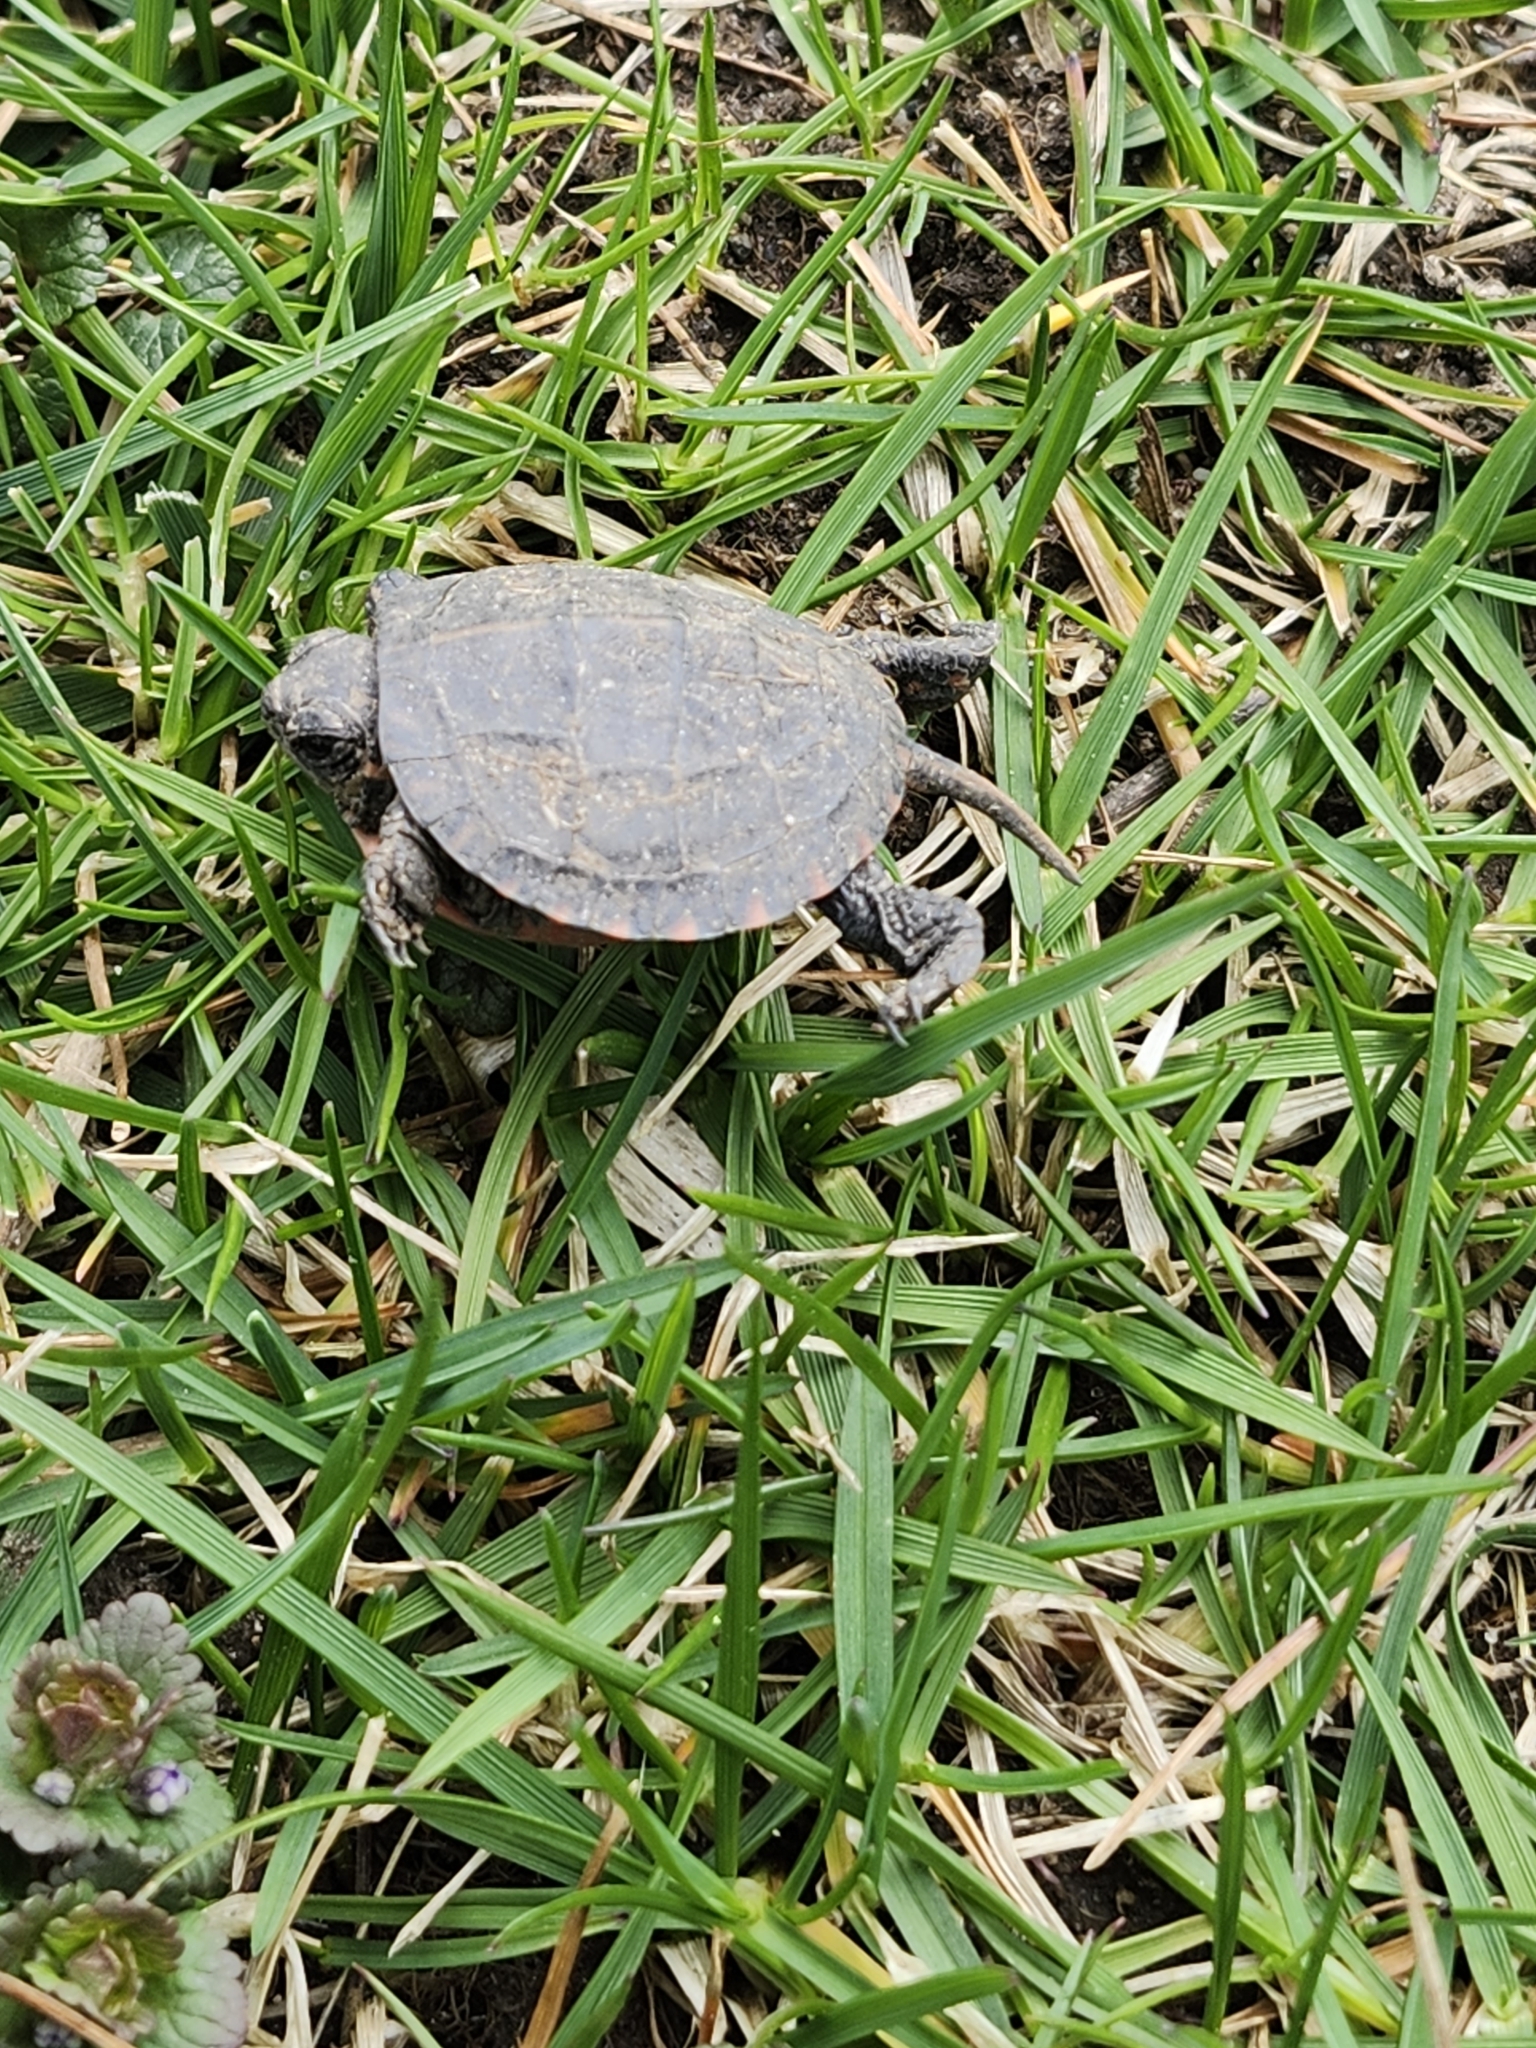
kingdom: Animalia
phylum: Chordata
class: Testudines
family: Emydidae
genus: Chrysemys
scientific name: Chrysemys picta
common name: Painted turtle
